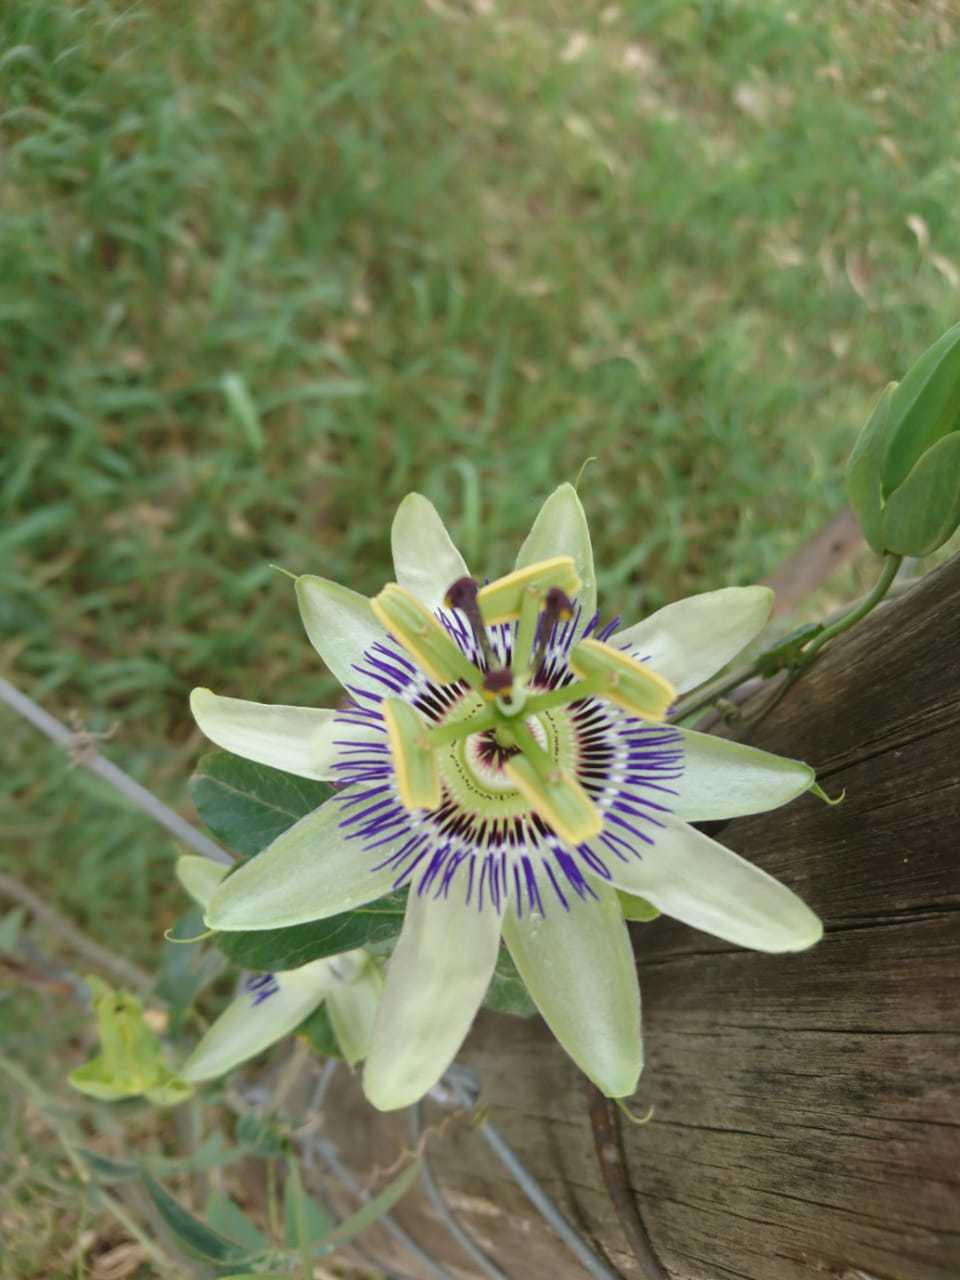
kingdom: Plantae
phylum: Tracheophyta
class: Magnoliopsida
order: Malpighiales
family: Passifloraceae
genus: Passiflora
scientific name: Passiflora caerulea
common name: Blue passionflower
